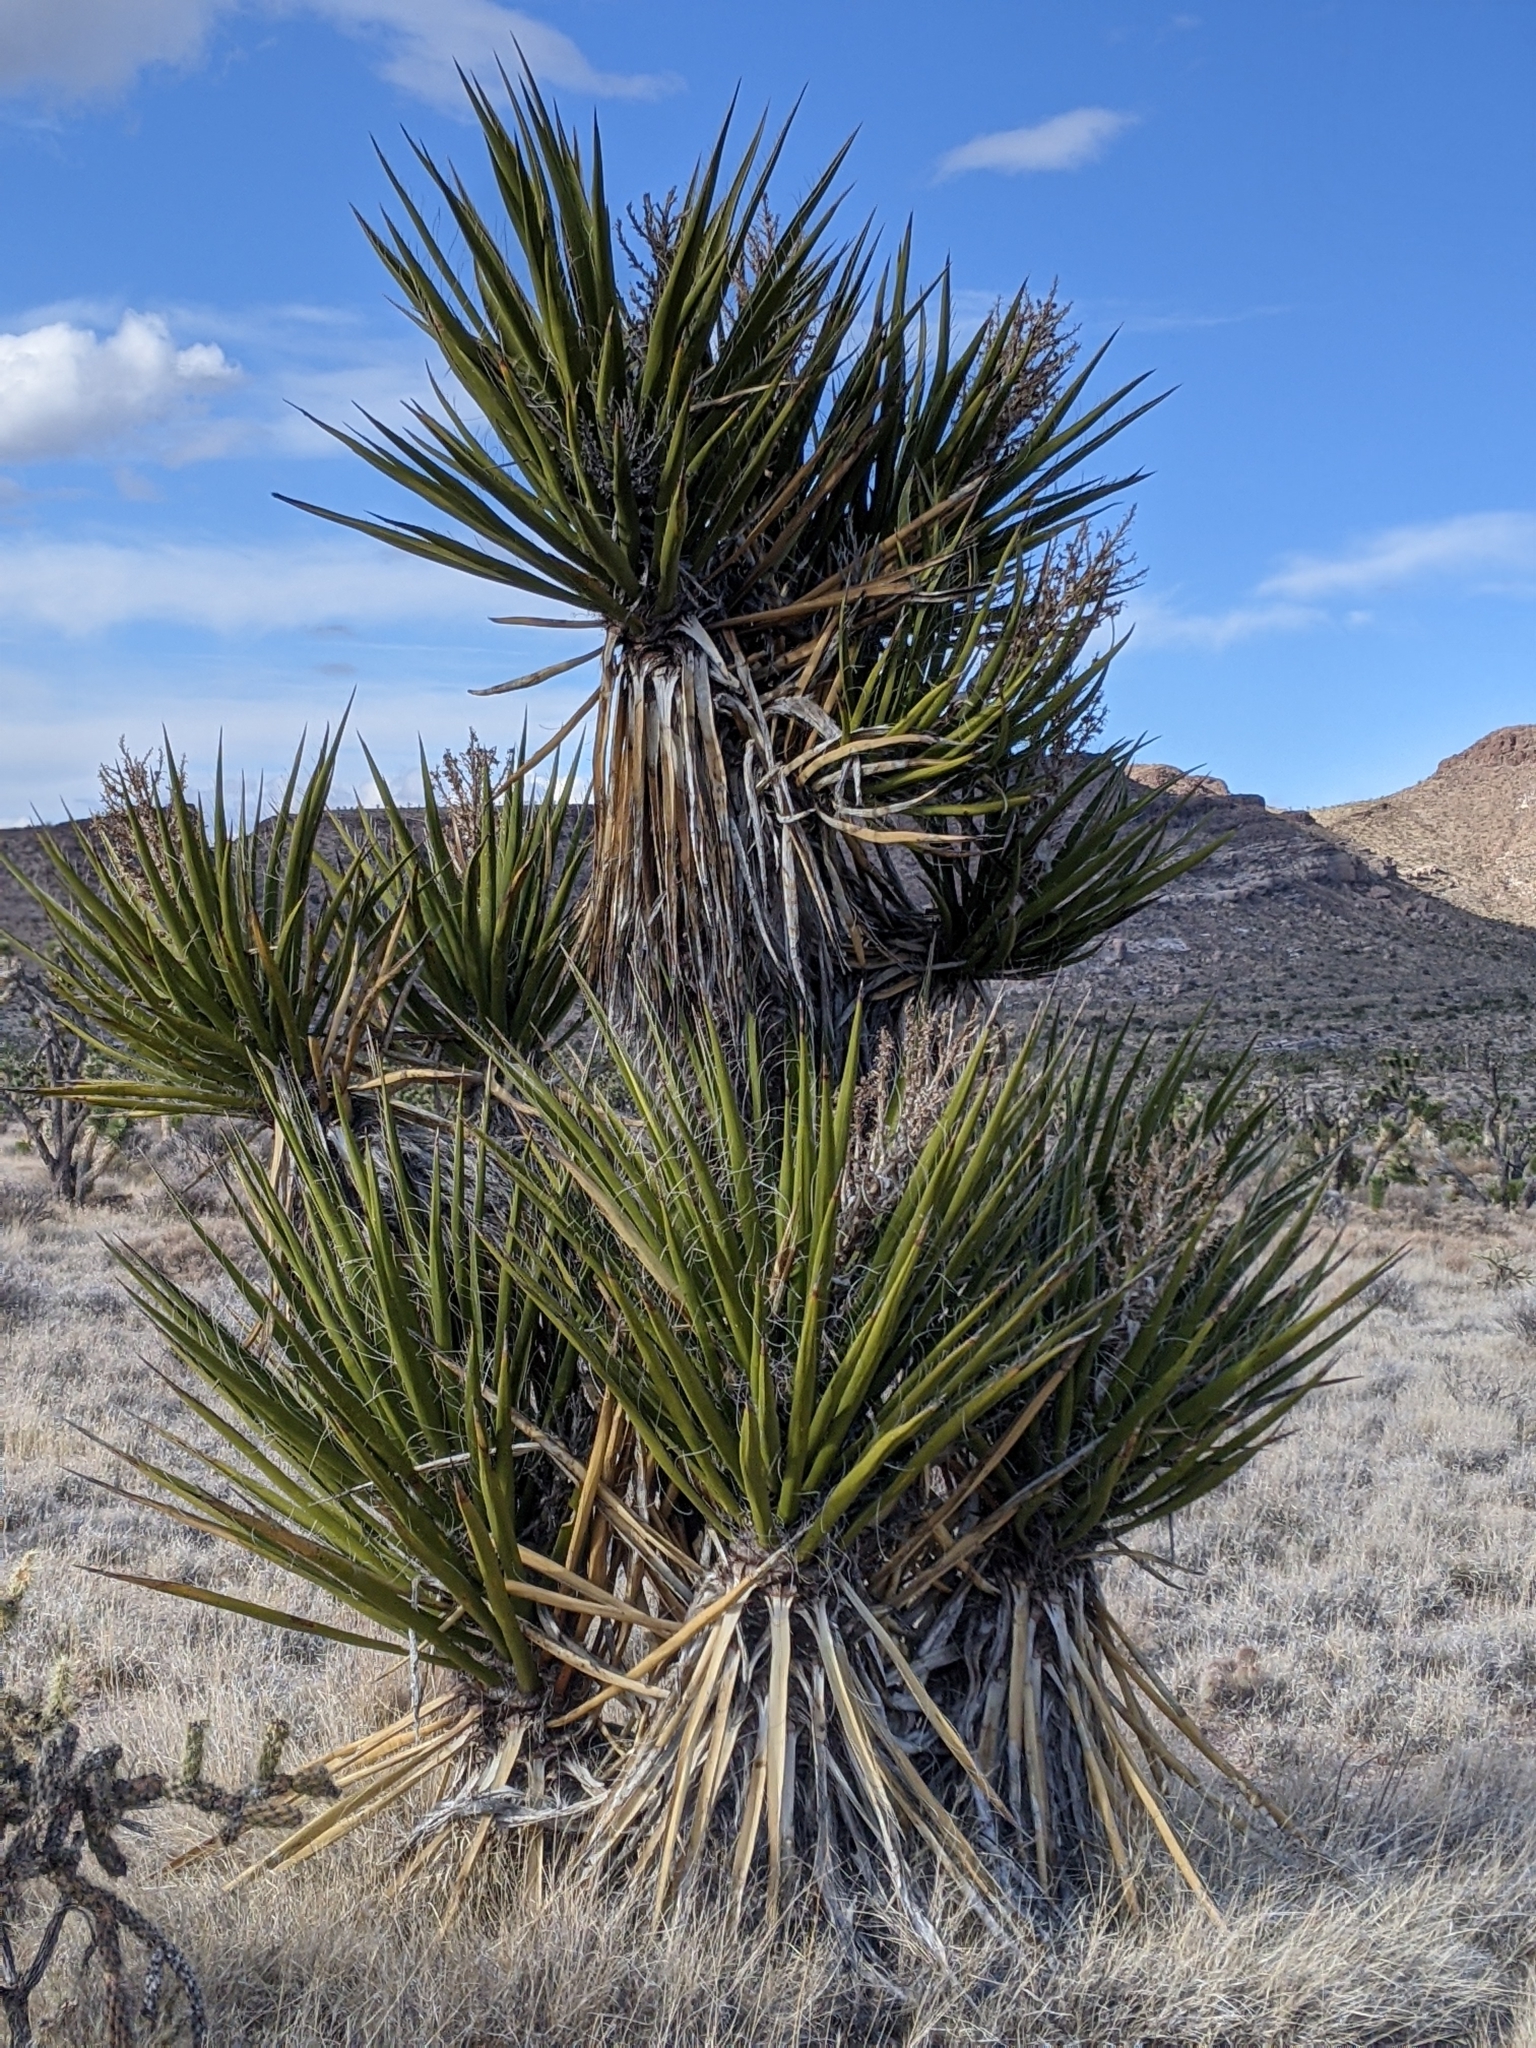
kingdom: Plantae
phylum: Tracheophyta
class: Liliopsida
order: Asparagales
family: Asparagaceae
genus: Yucca
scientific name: Yucca schidigera
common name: Mojave yucca
